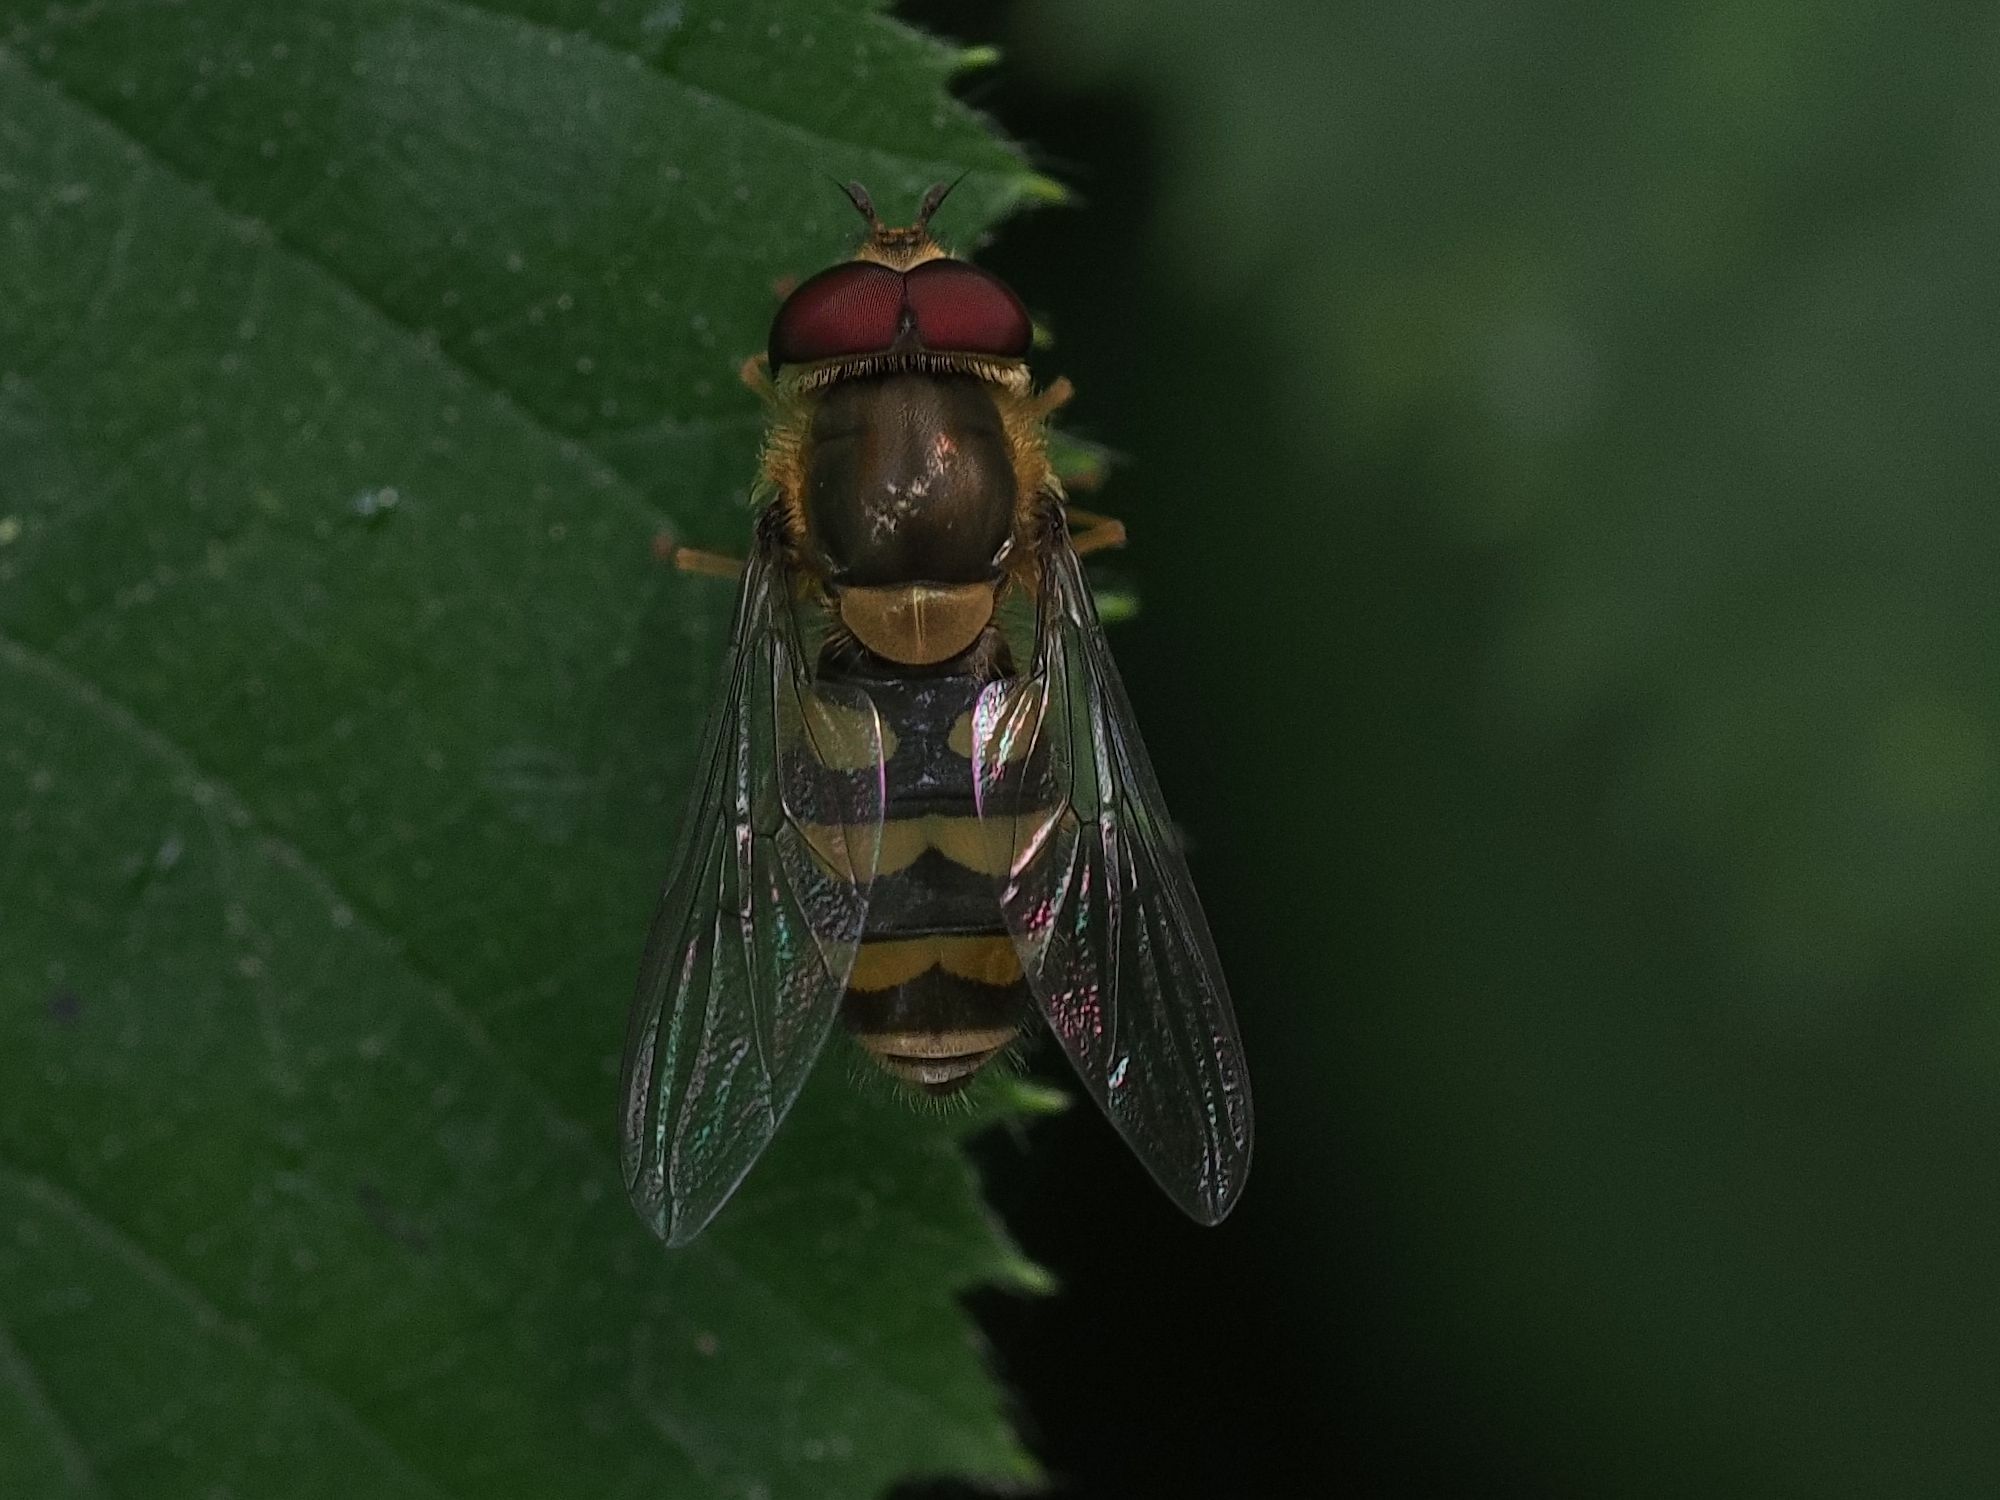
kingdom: Animalia
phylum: Arthropoda
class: Insecta
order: Diptera
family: Syrphidae
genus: Syrphus
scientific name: Syrphus
